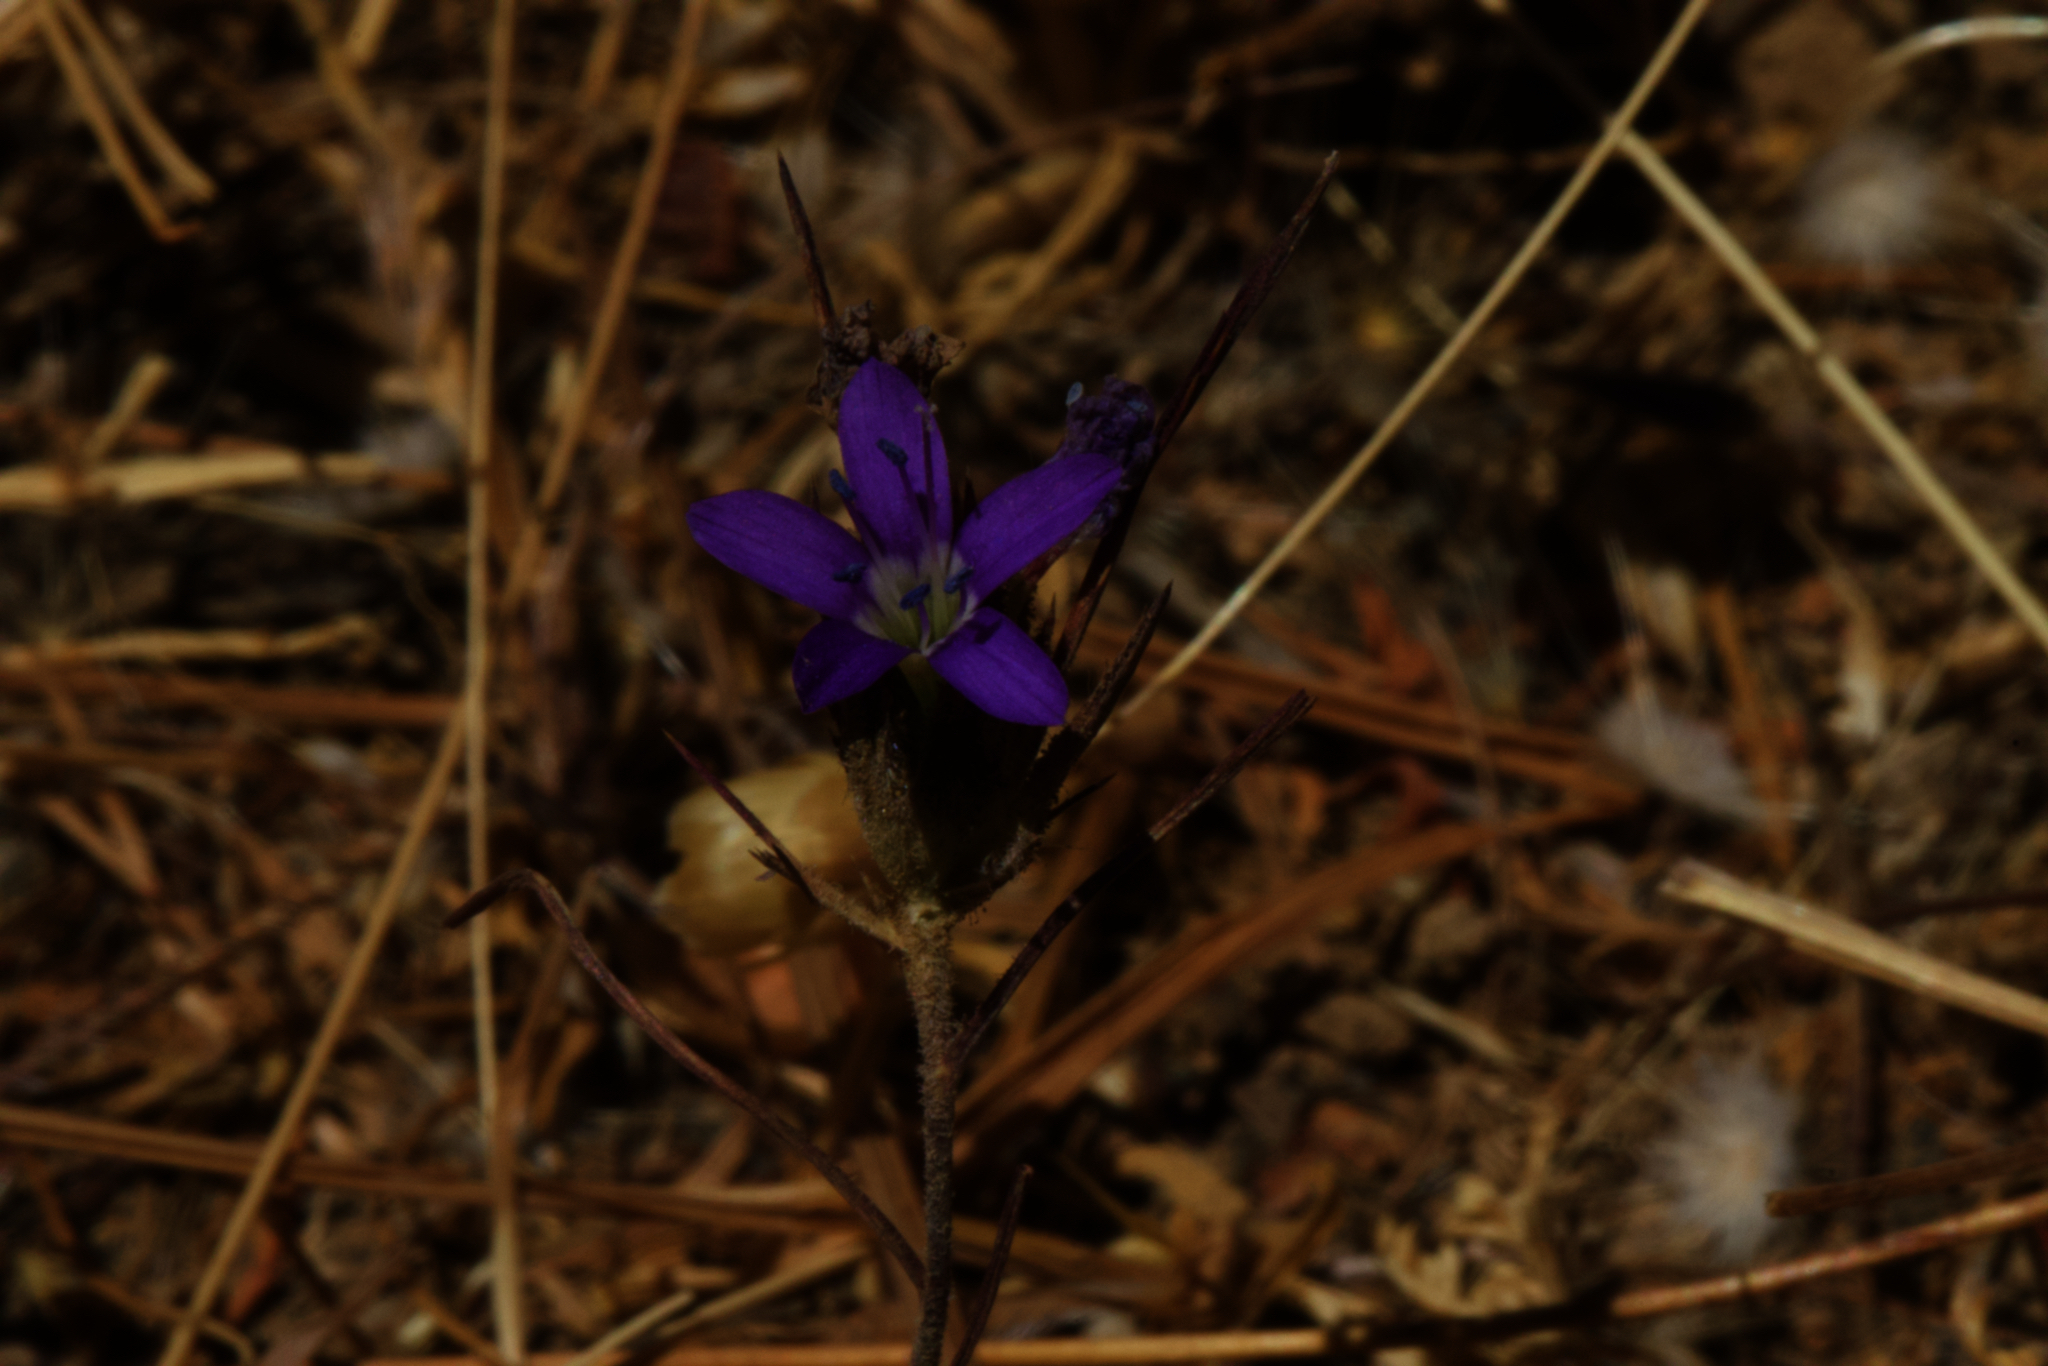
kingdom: Plantae
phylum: Tracheophyta
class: Magnoliopsida
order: Ericales
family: Polemoniaceae
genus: Navarretia
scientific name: Navarretia viscidula
